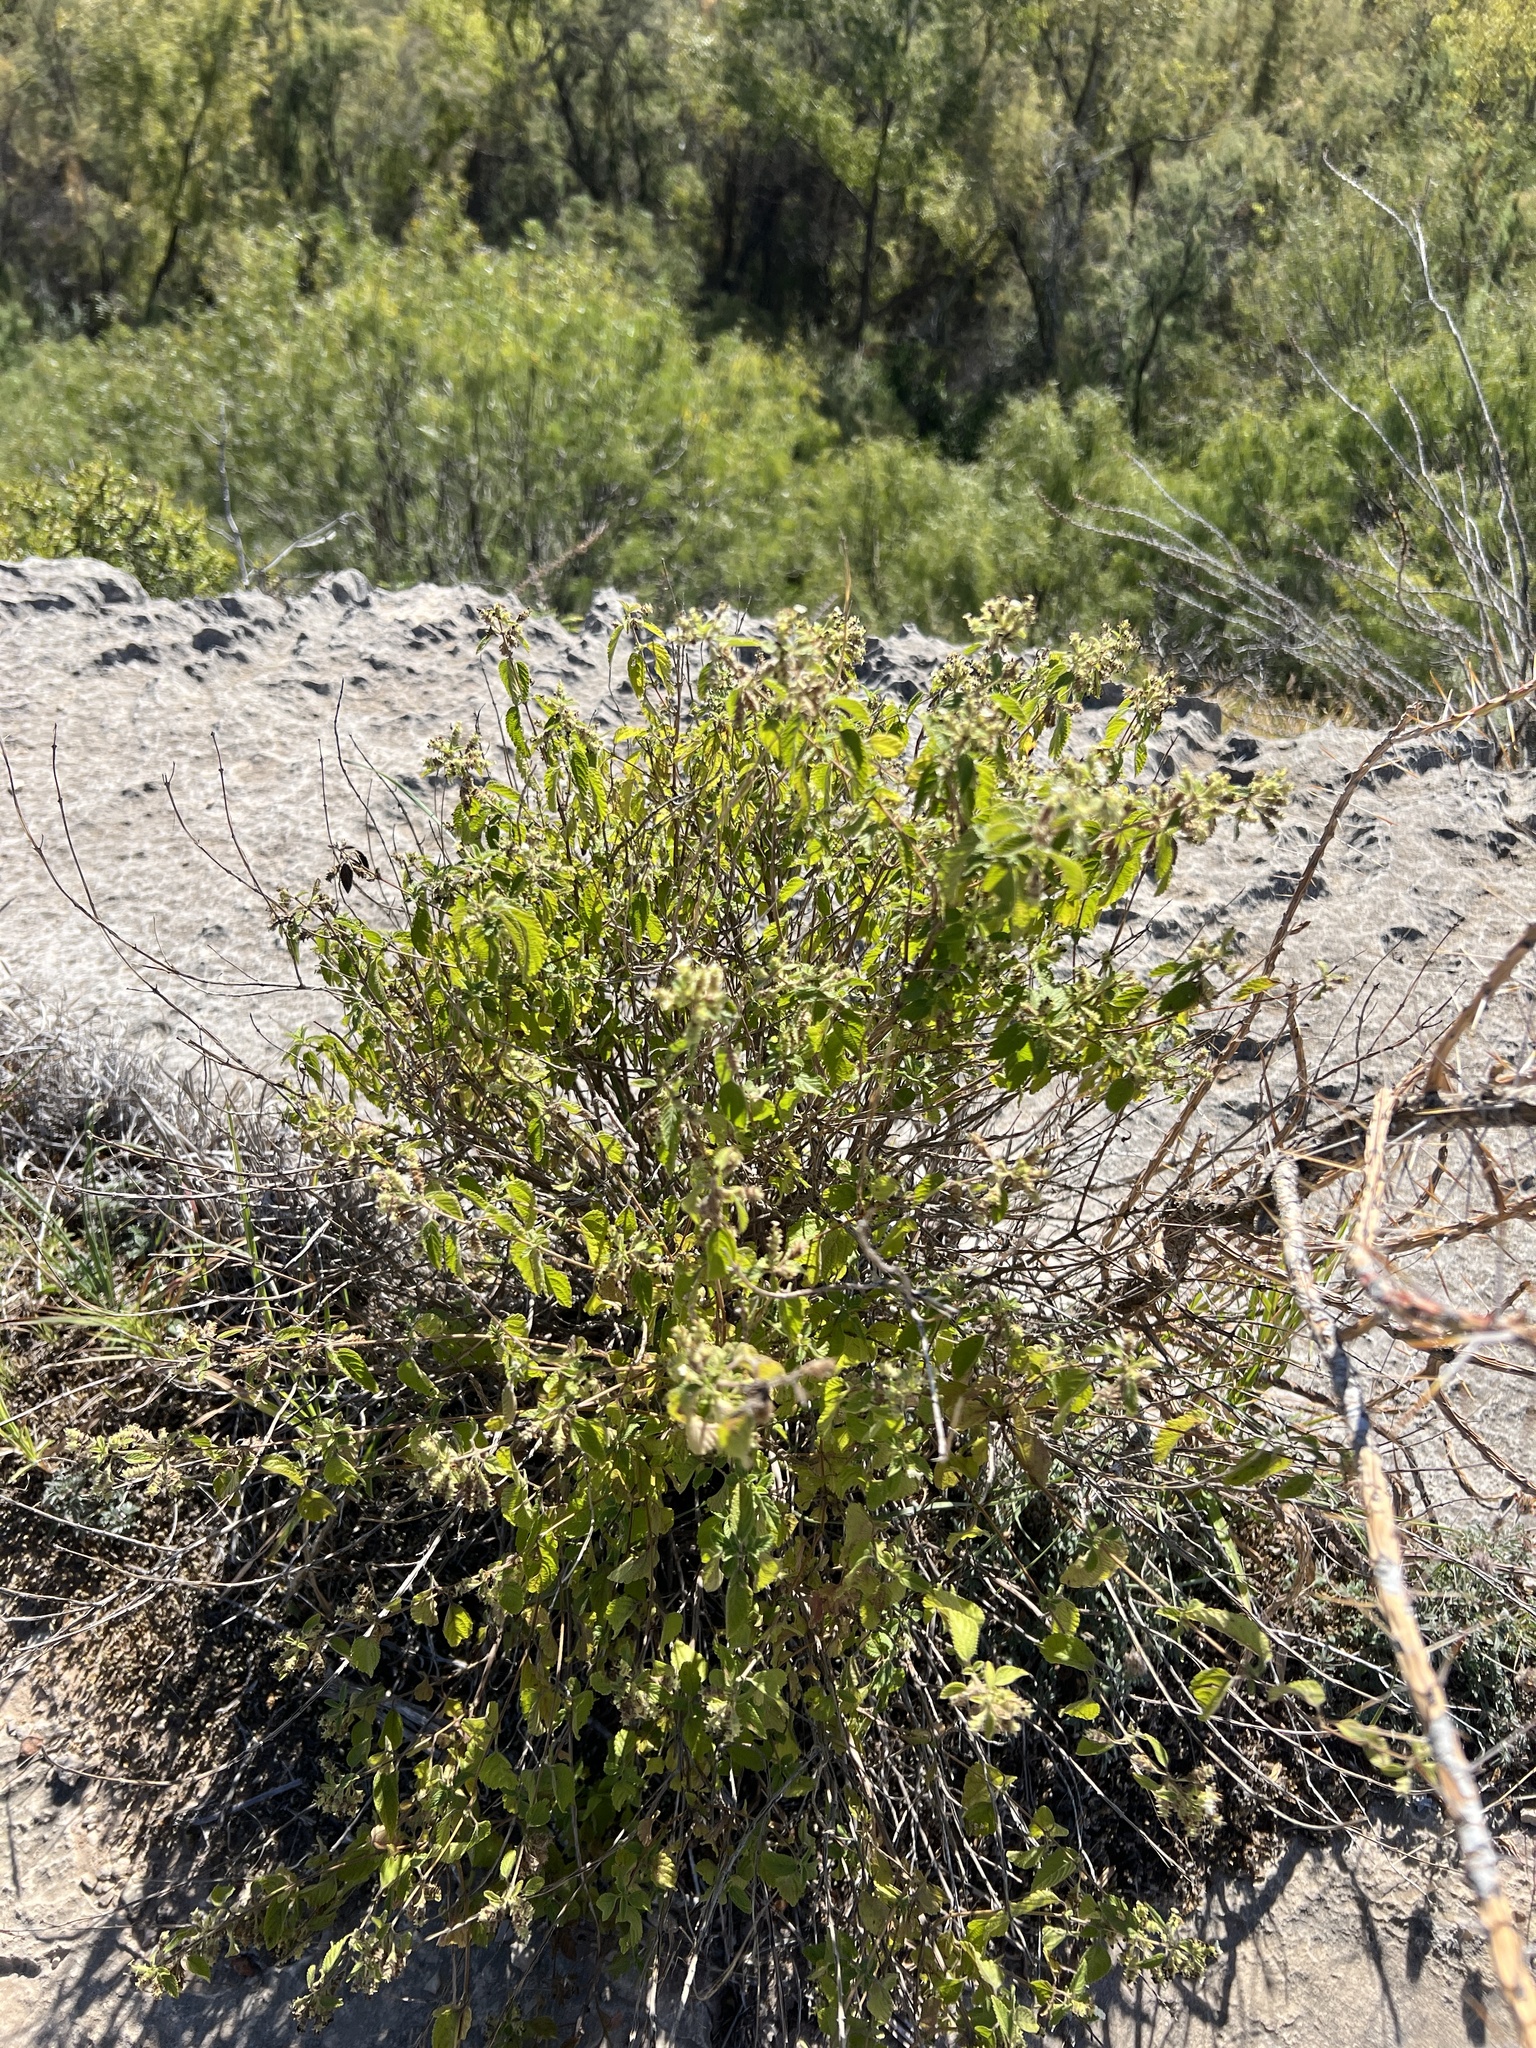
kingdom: Plantae
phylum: Tracheophyta
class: Magnoliopsida
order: Lamiales
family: Verbenaceae
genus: Lippia
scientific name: Lippia origanoides
